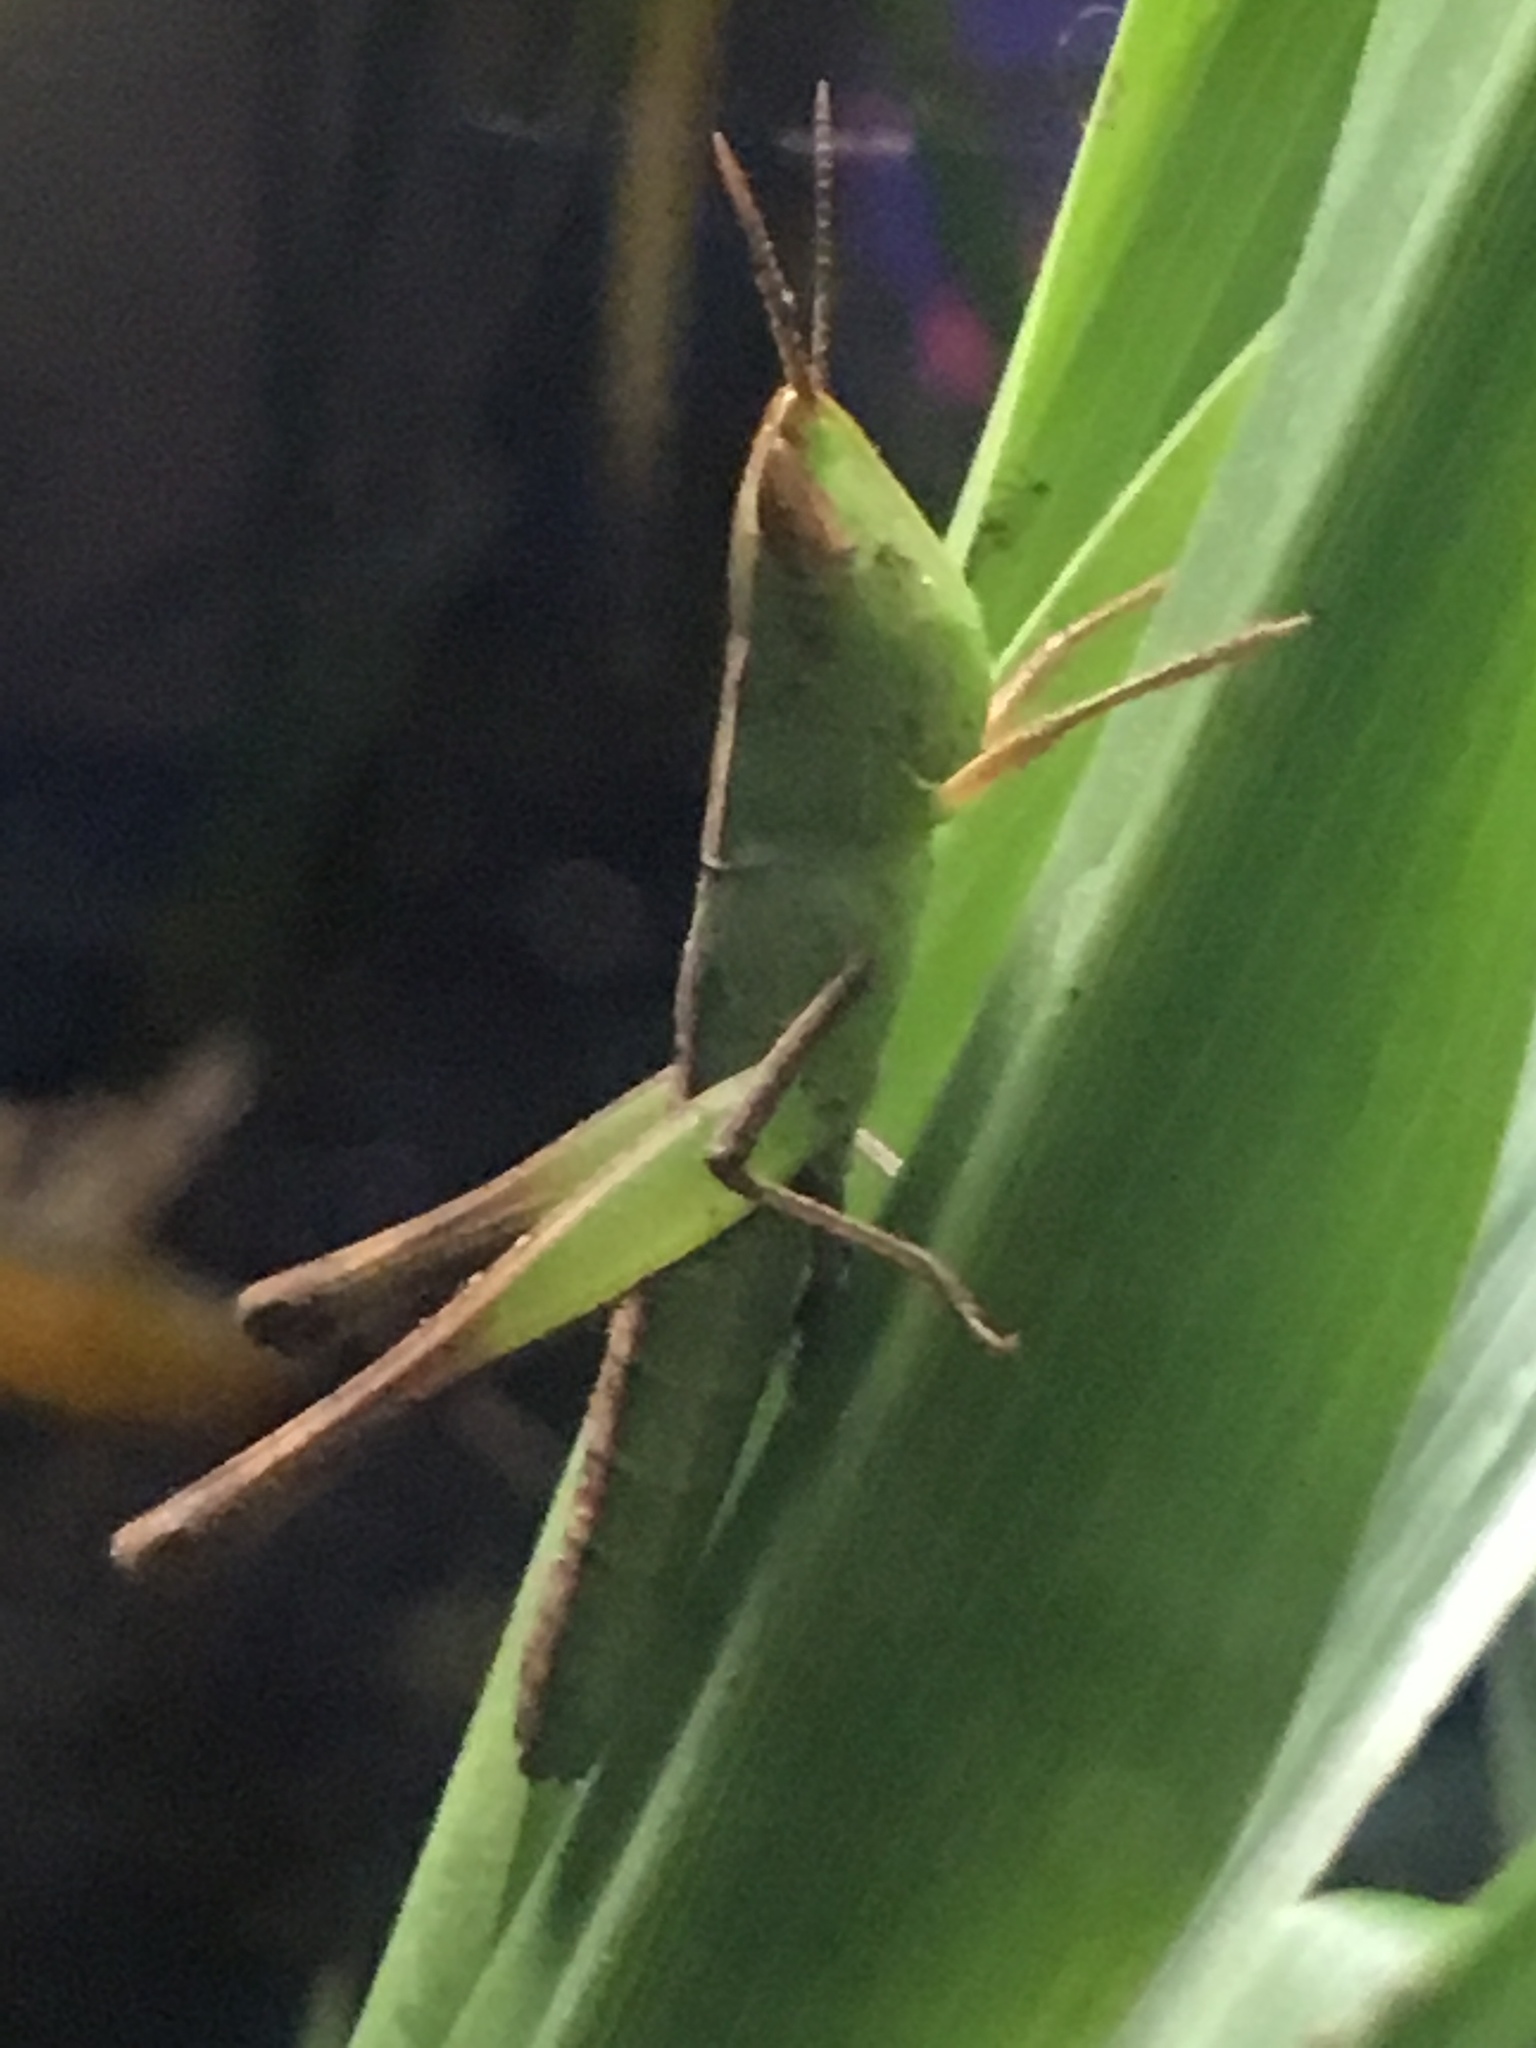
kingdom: Animalia
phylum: Arthropoda
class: Insecta
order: Orthoptera
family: Acrididae
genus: Syrbula
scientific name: Syrbula admirabilis
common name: Handsome grasshopper
